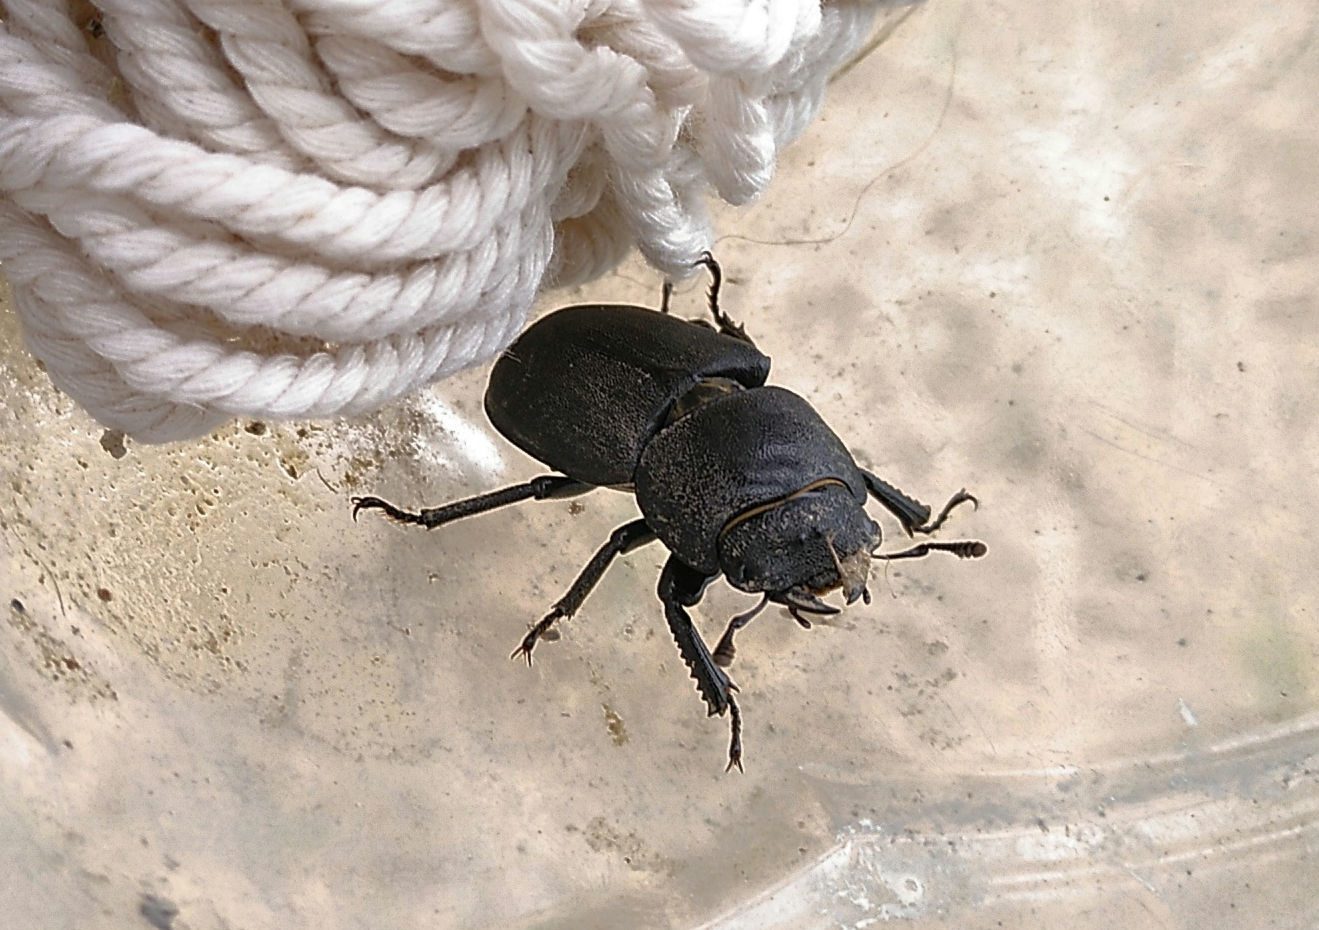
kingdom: Animalia
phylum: Arthropoda
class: Insecta
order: Coleoptera
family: Lucanidae
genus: Dorcus
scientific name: Dorcus parallelipipedus
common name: Lesser stag beetle
